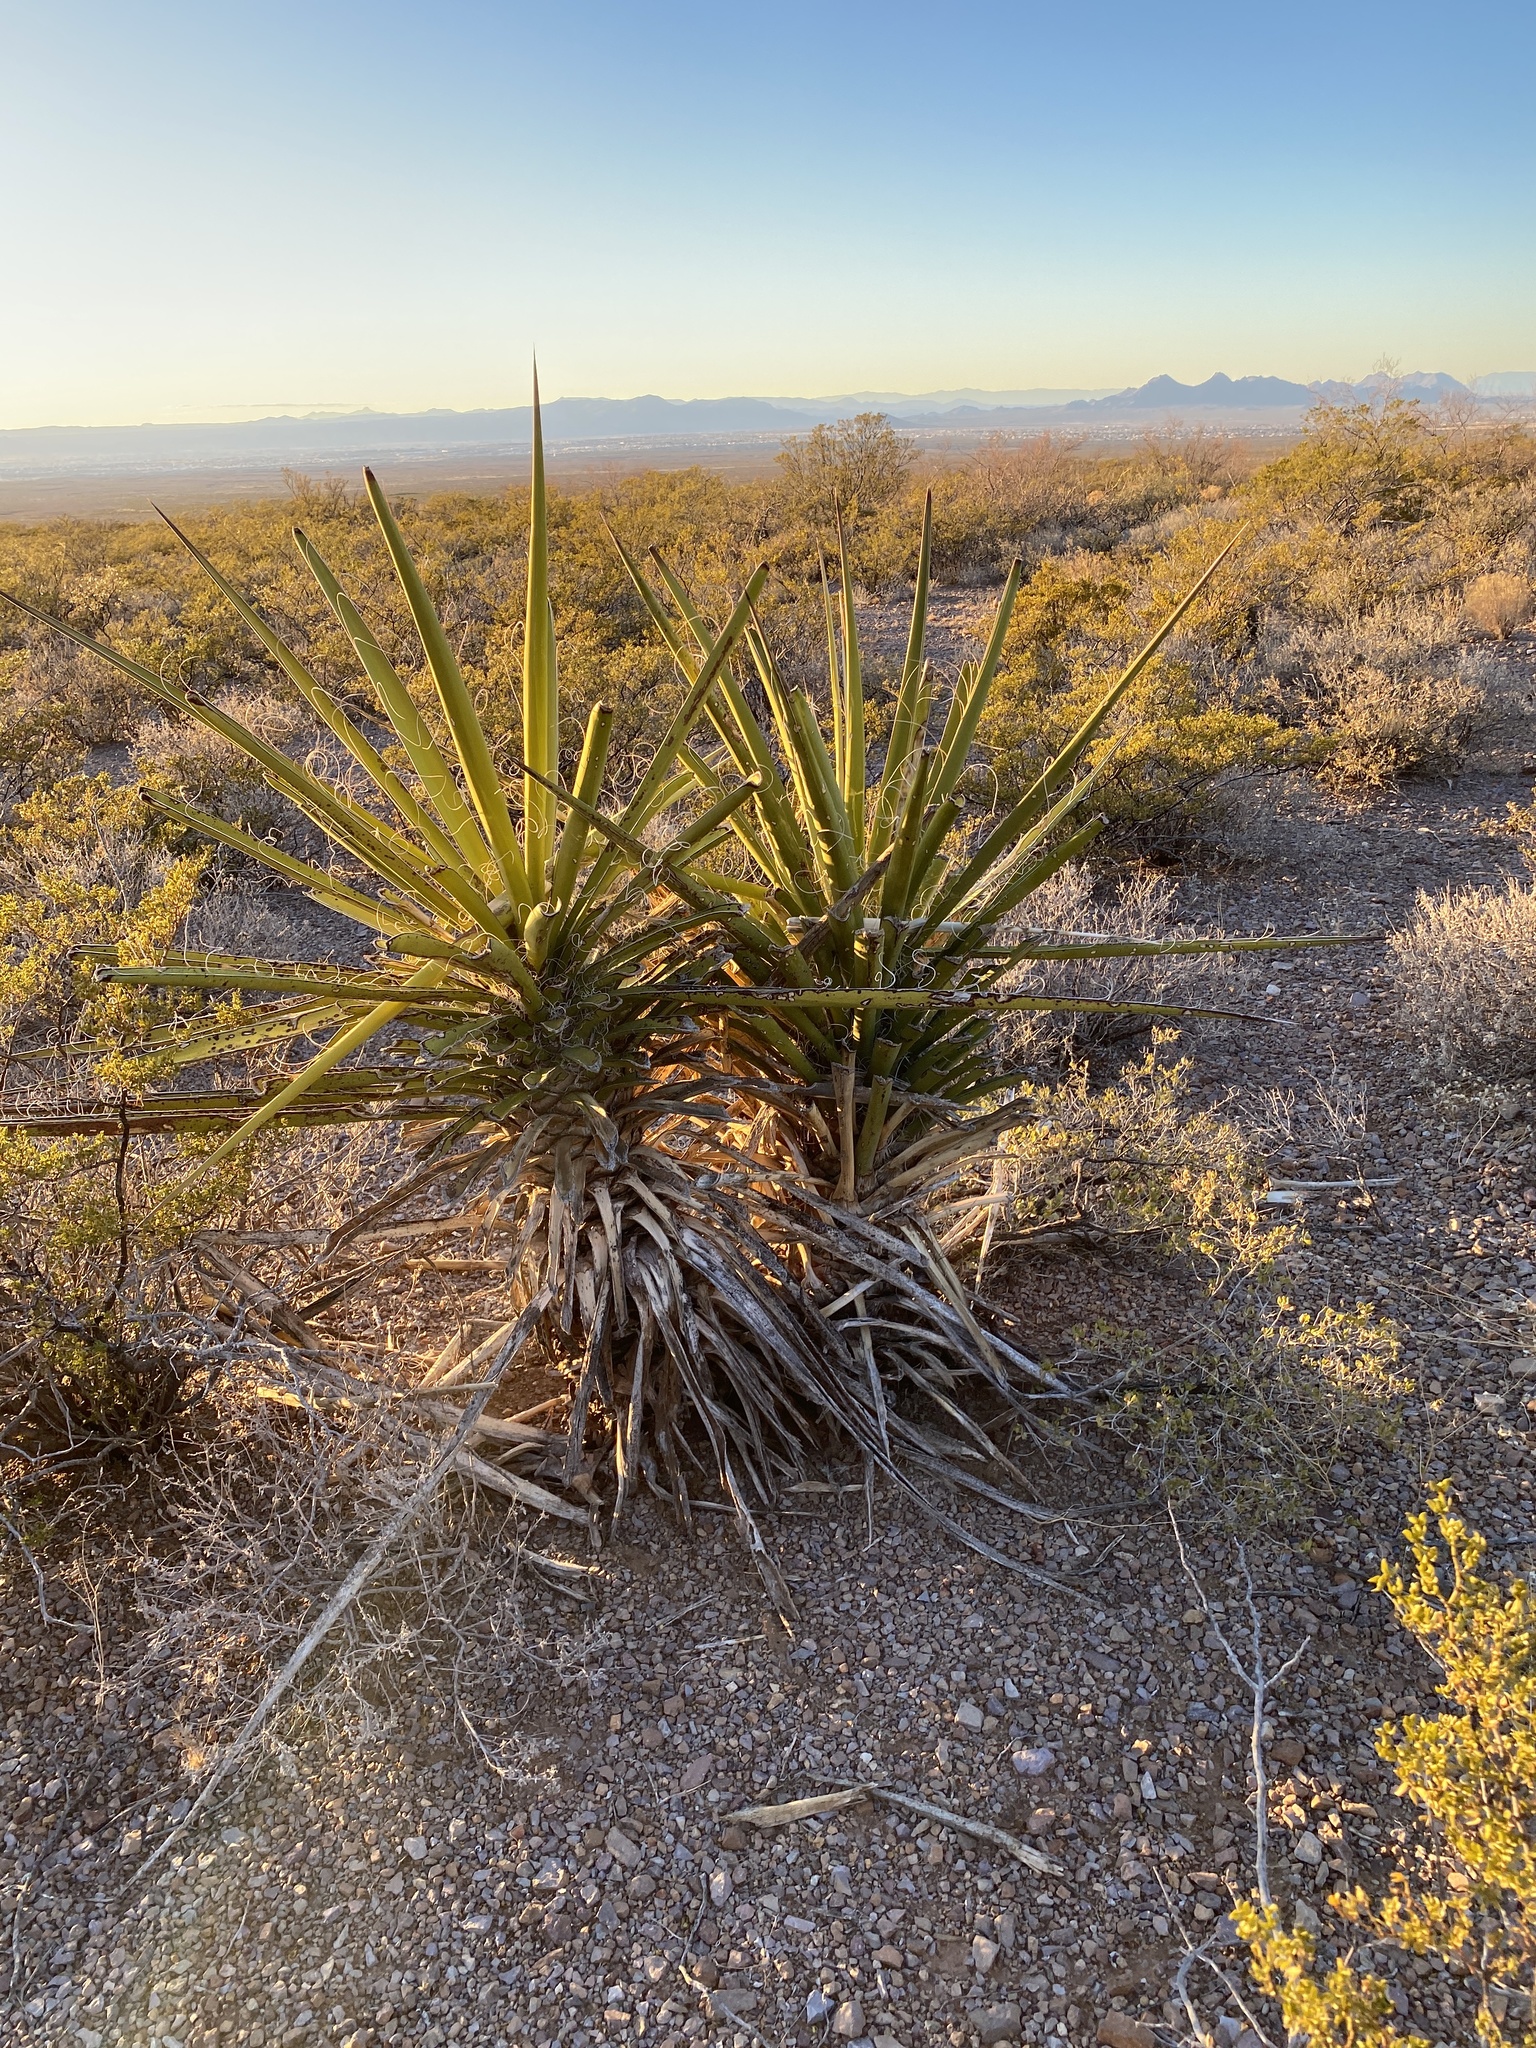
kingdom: Plantae
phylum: Tracheophyta
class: Liliopsida
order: Asparagales
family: Asparagaceae
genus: Yucca
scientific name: Yucca treculiana
